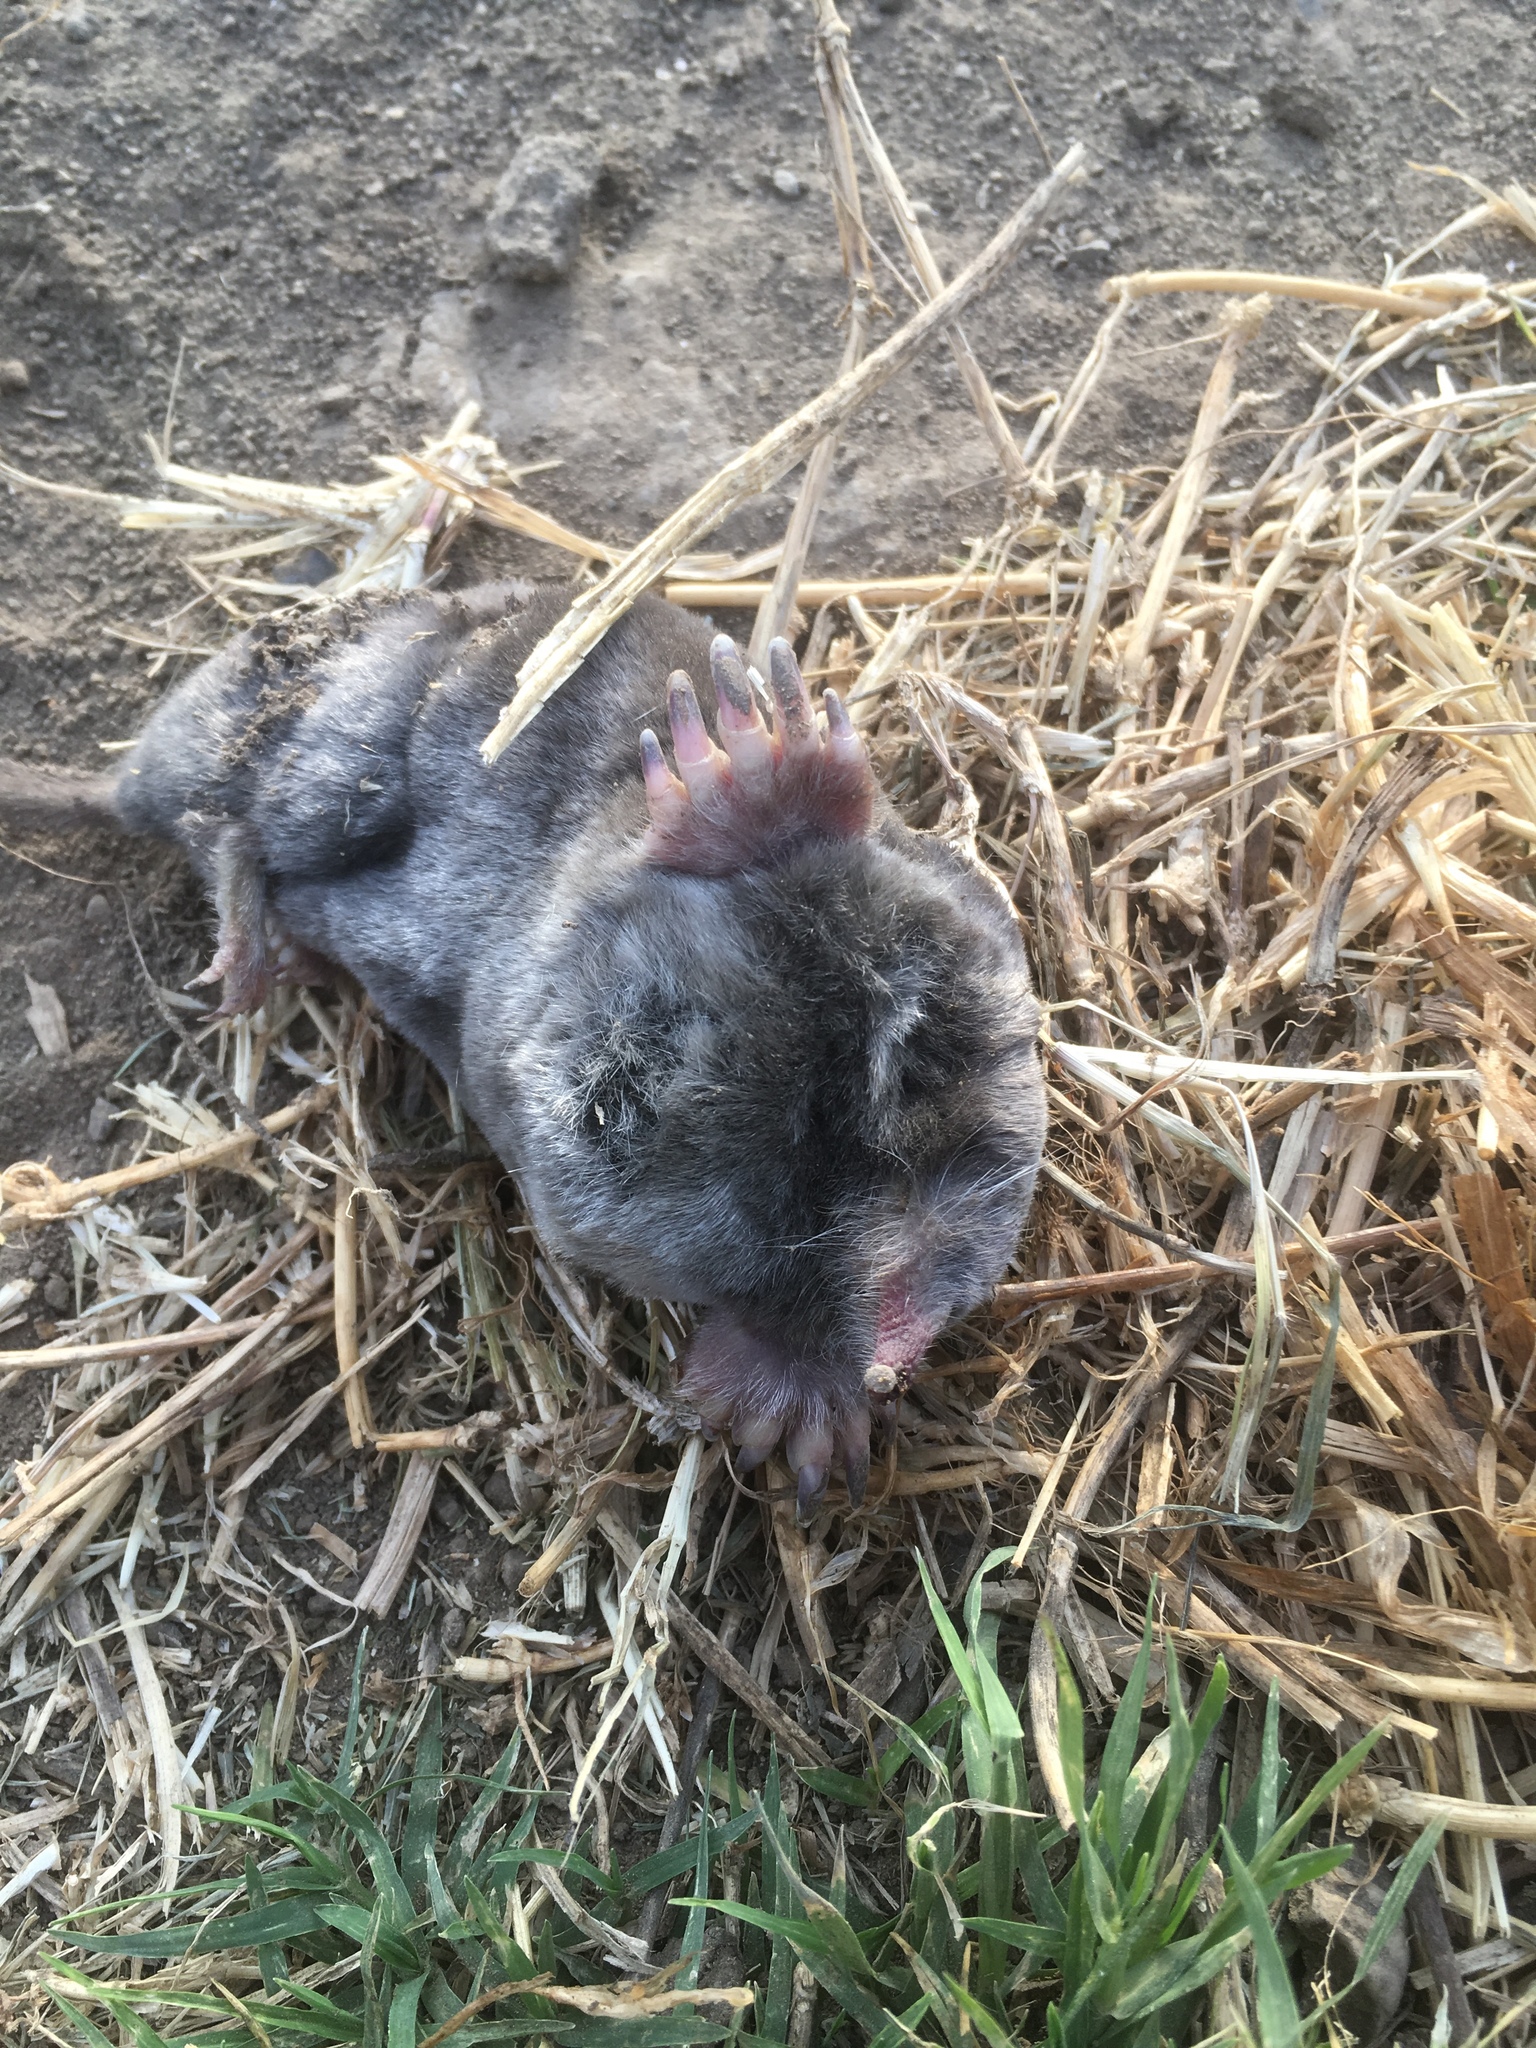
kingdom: Animalia
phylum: Chordata
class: Mammalia
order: Soricomorpha
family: Talpidae
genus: Scapanus
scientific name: Scapanus latimanus
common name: Broad-footed mole
